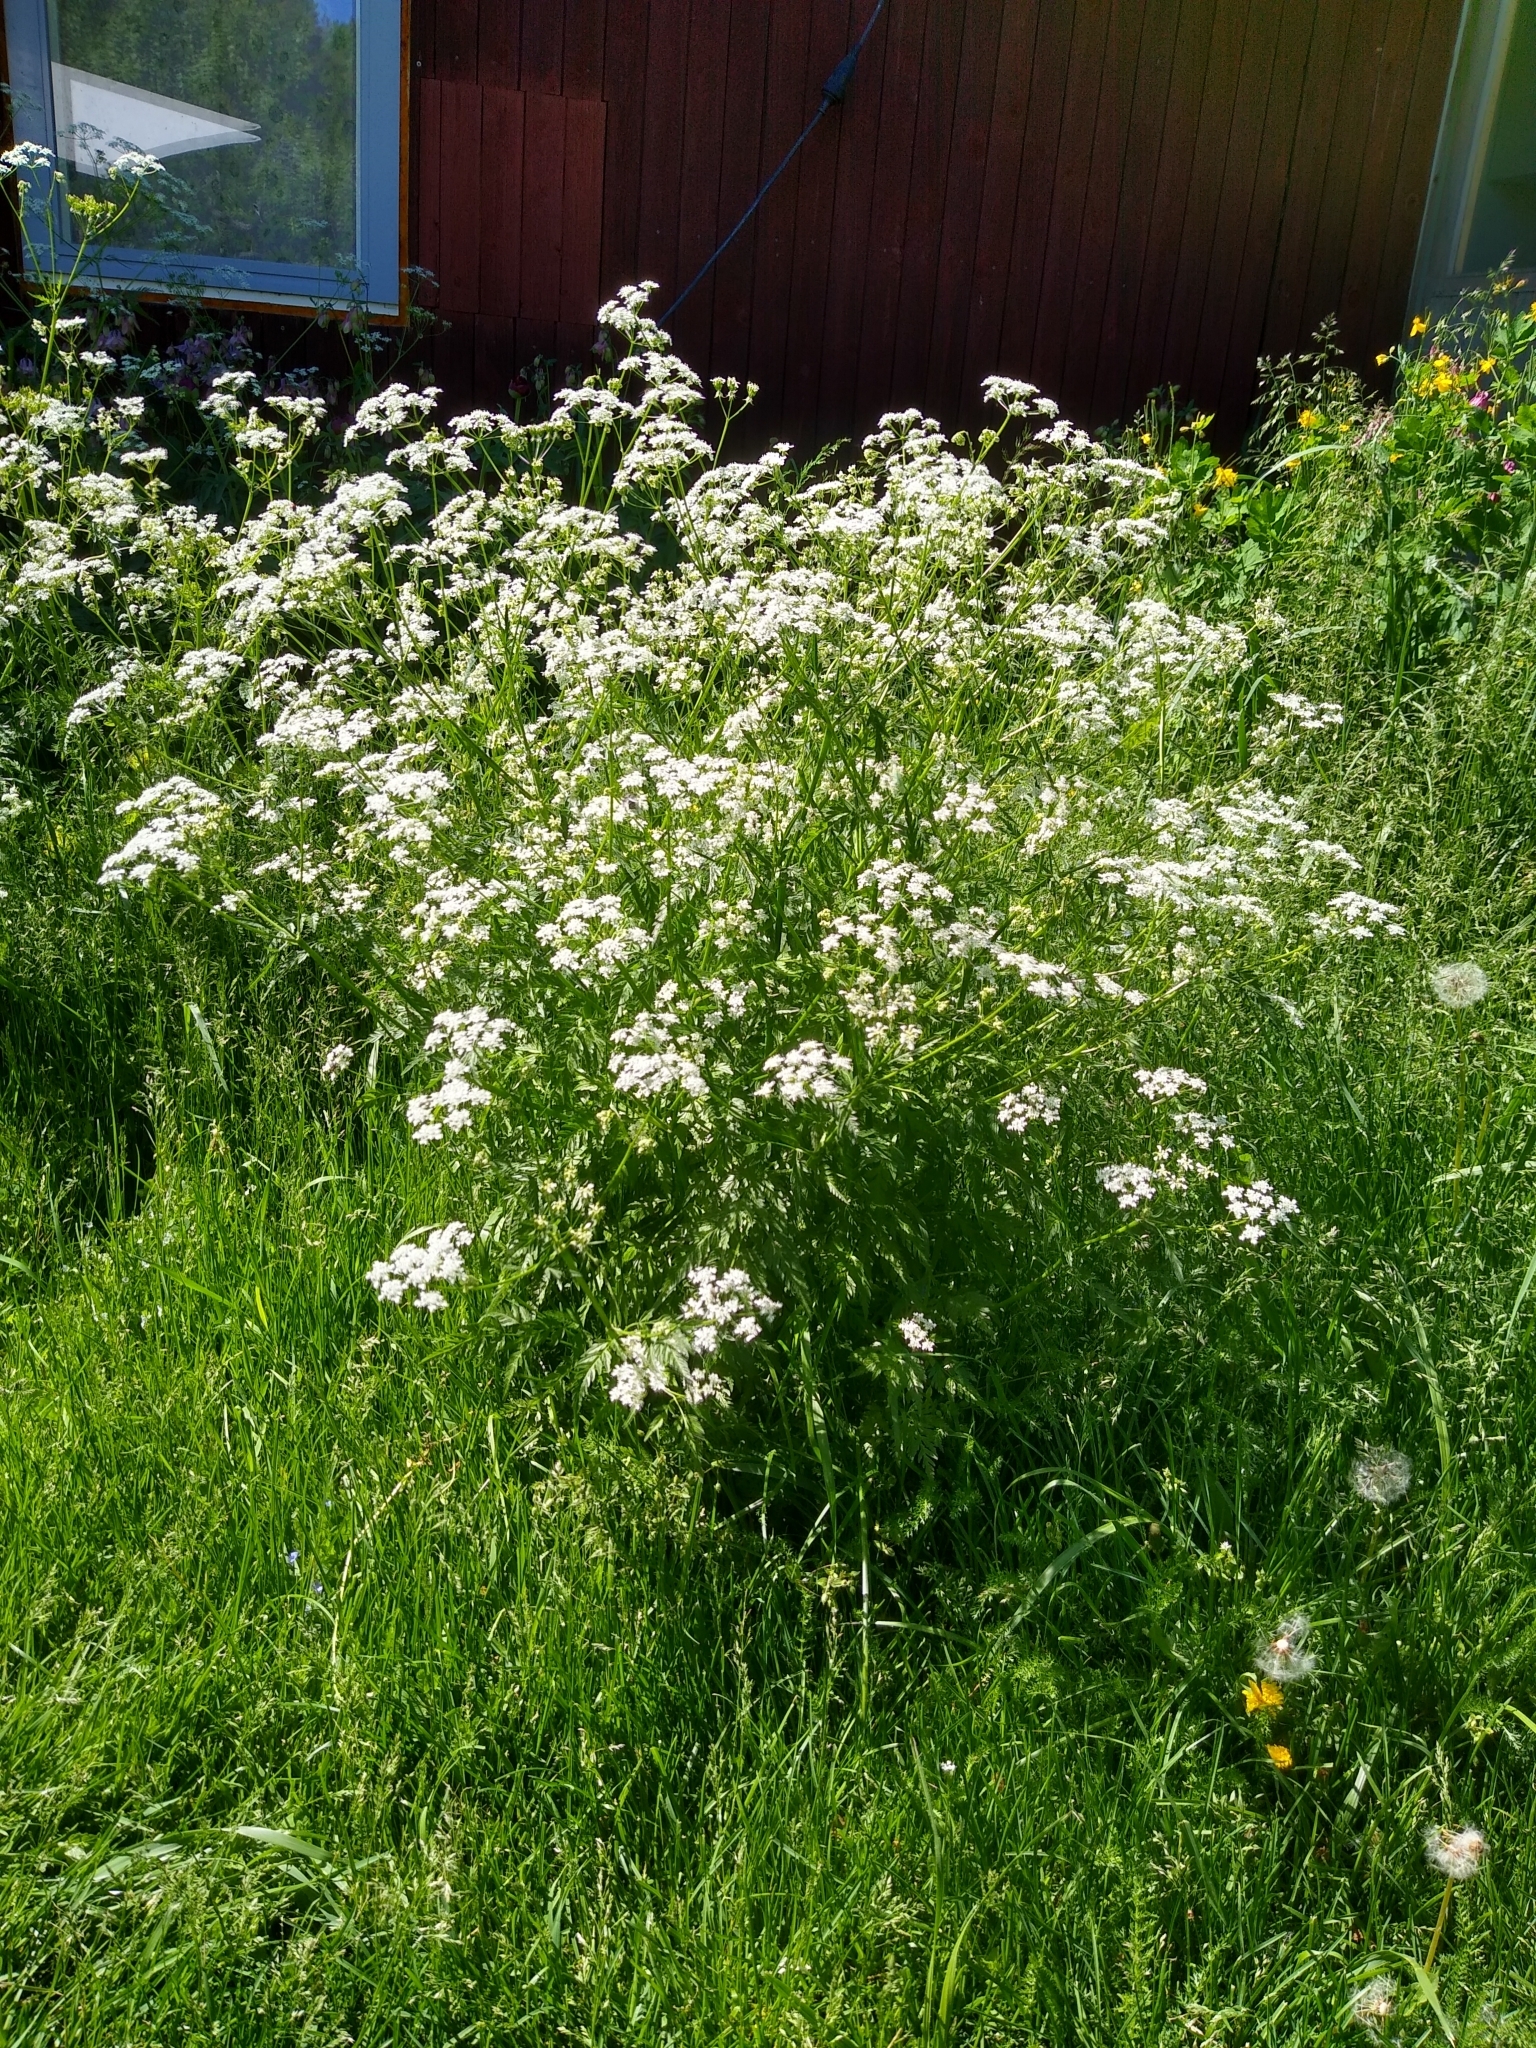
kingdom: Plantae
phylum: Tracheophyta
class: Magnoliopsida
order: Apiales
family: Apiaceae
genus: Anthriscus
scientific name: Anthriscus sylvestris
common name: Cow parsley
